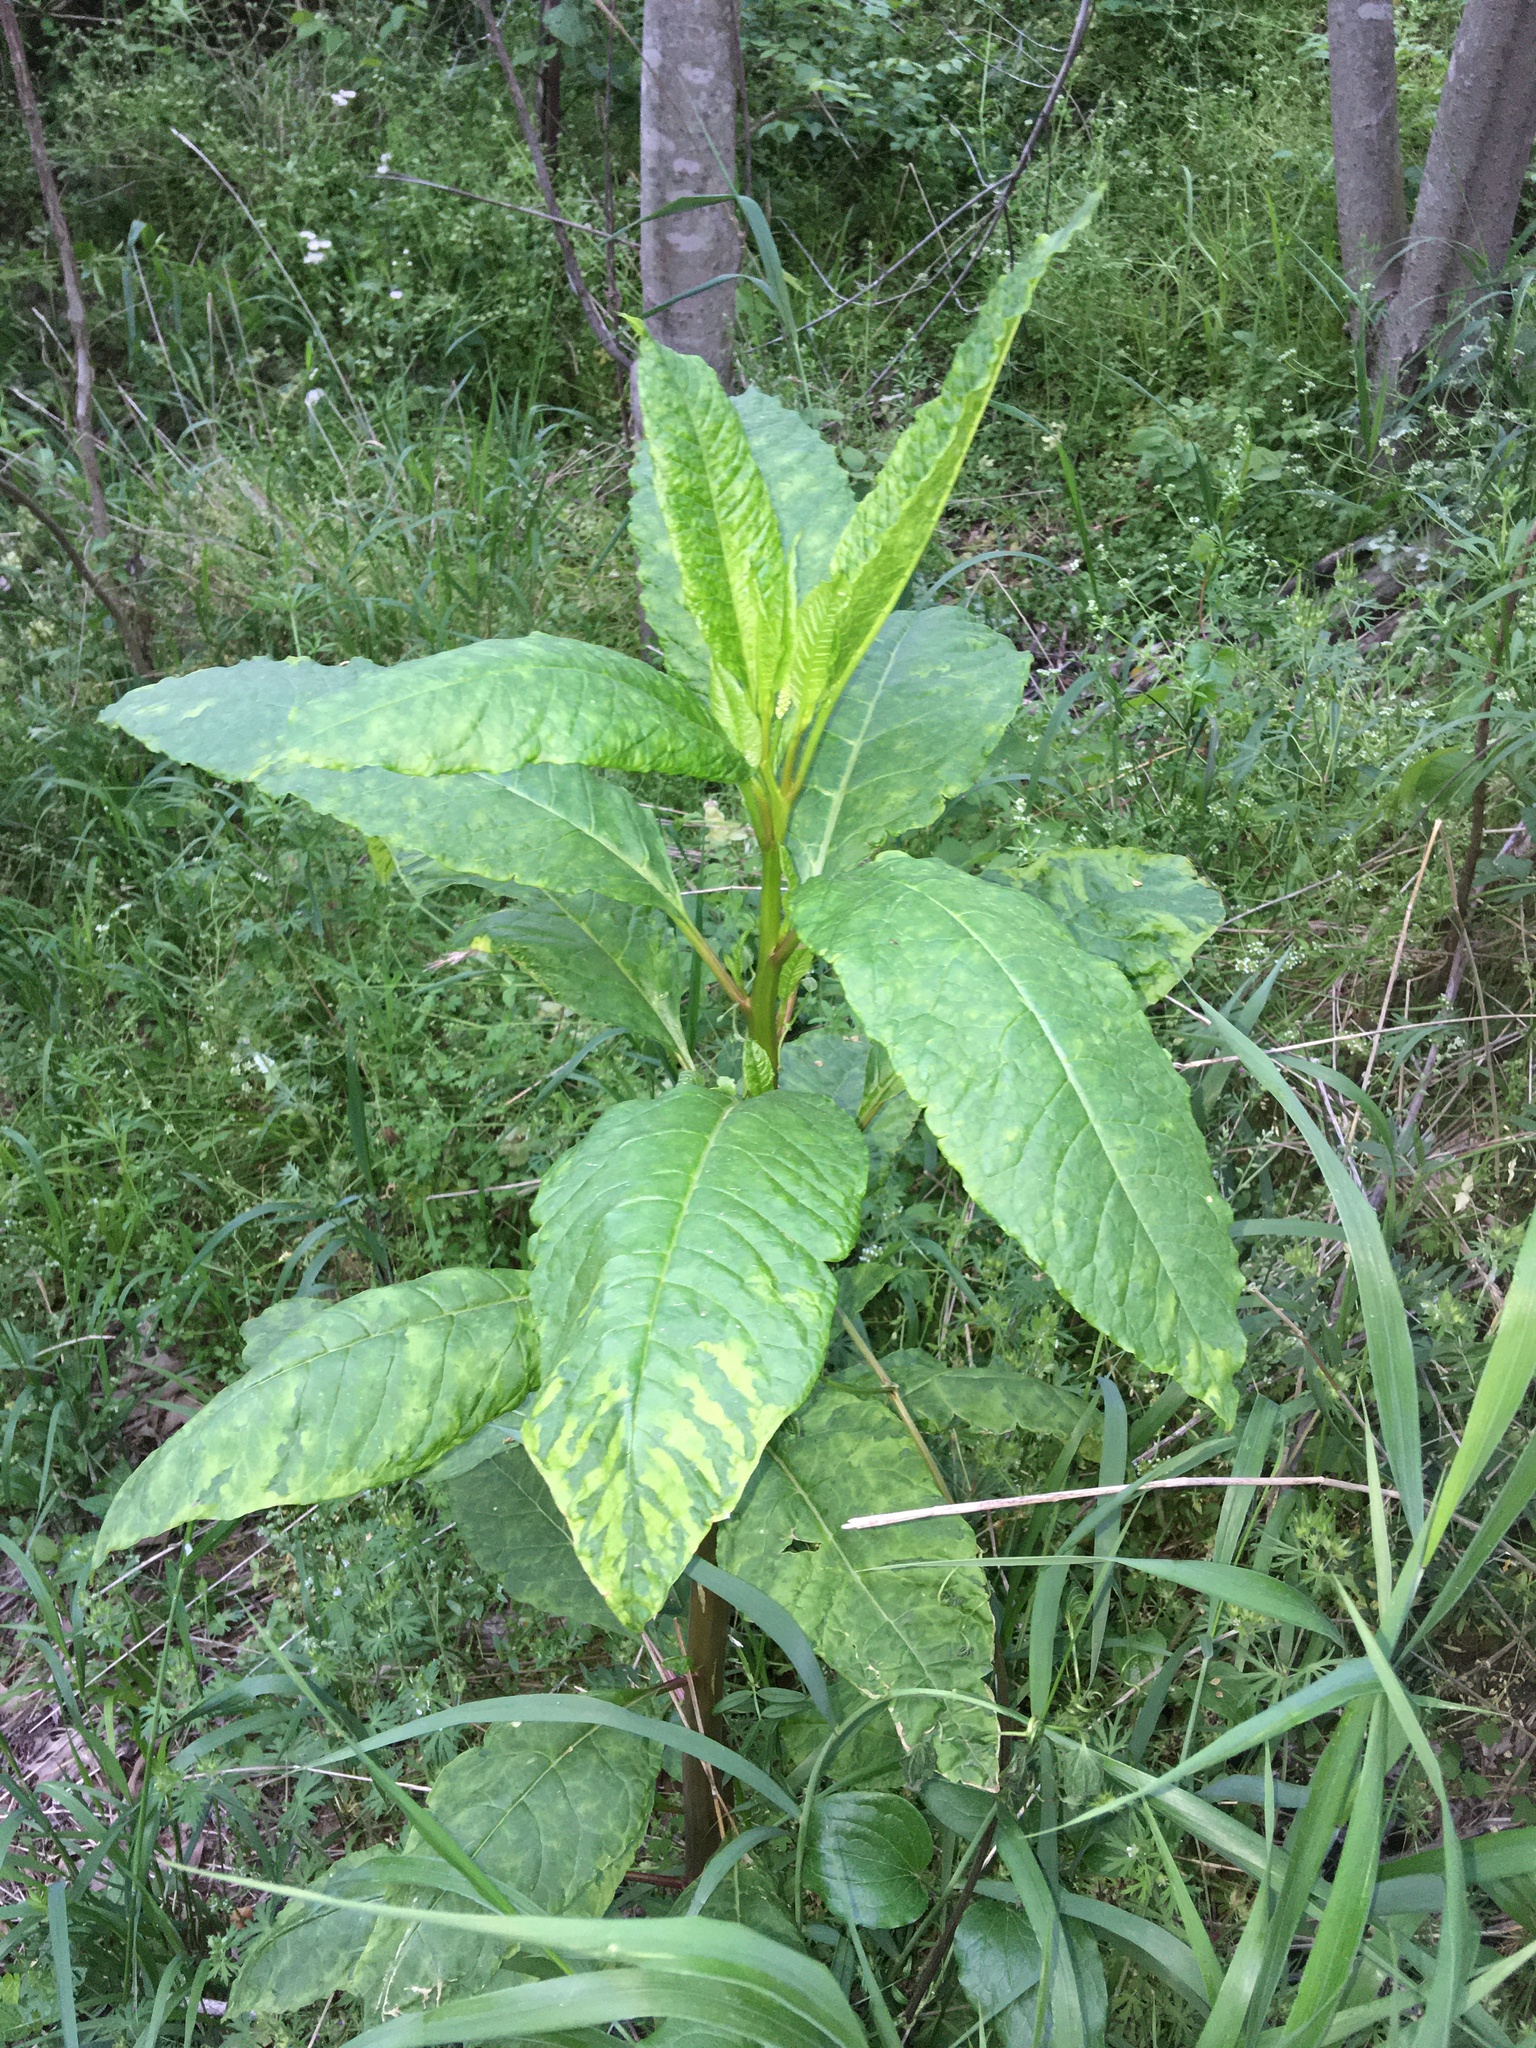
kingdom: Plantae
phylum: Tracheophyta
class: Magnoliopsida
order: Caryophyllales
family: Phytolaccaceae
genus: Phytolacca
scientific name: Phytolacca americana
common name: American pokeweed
